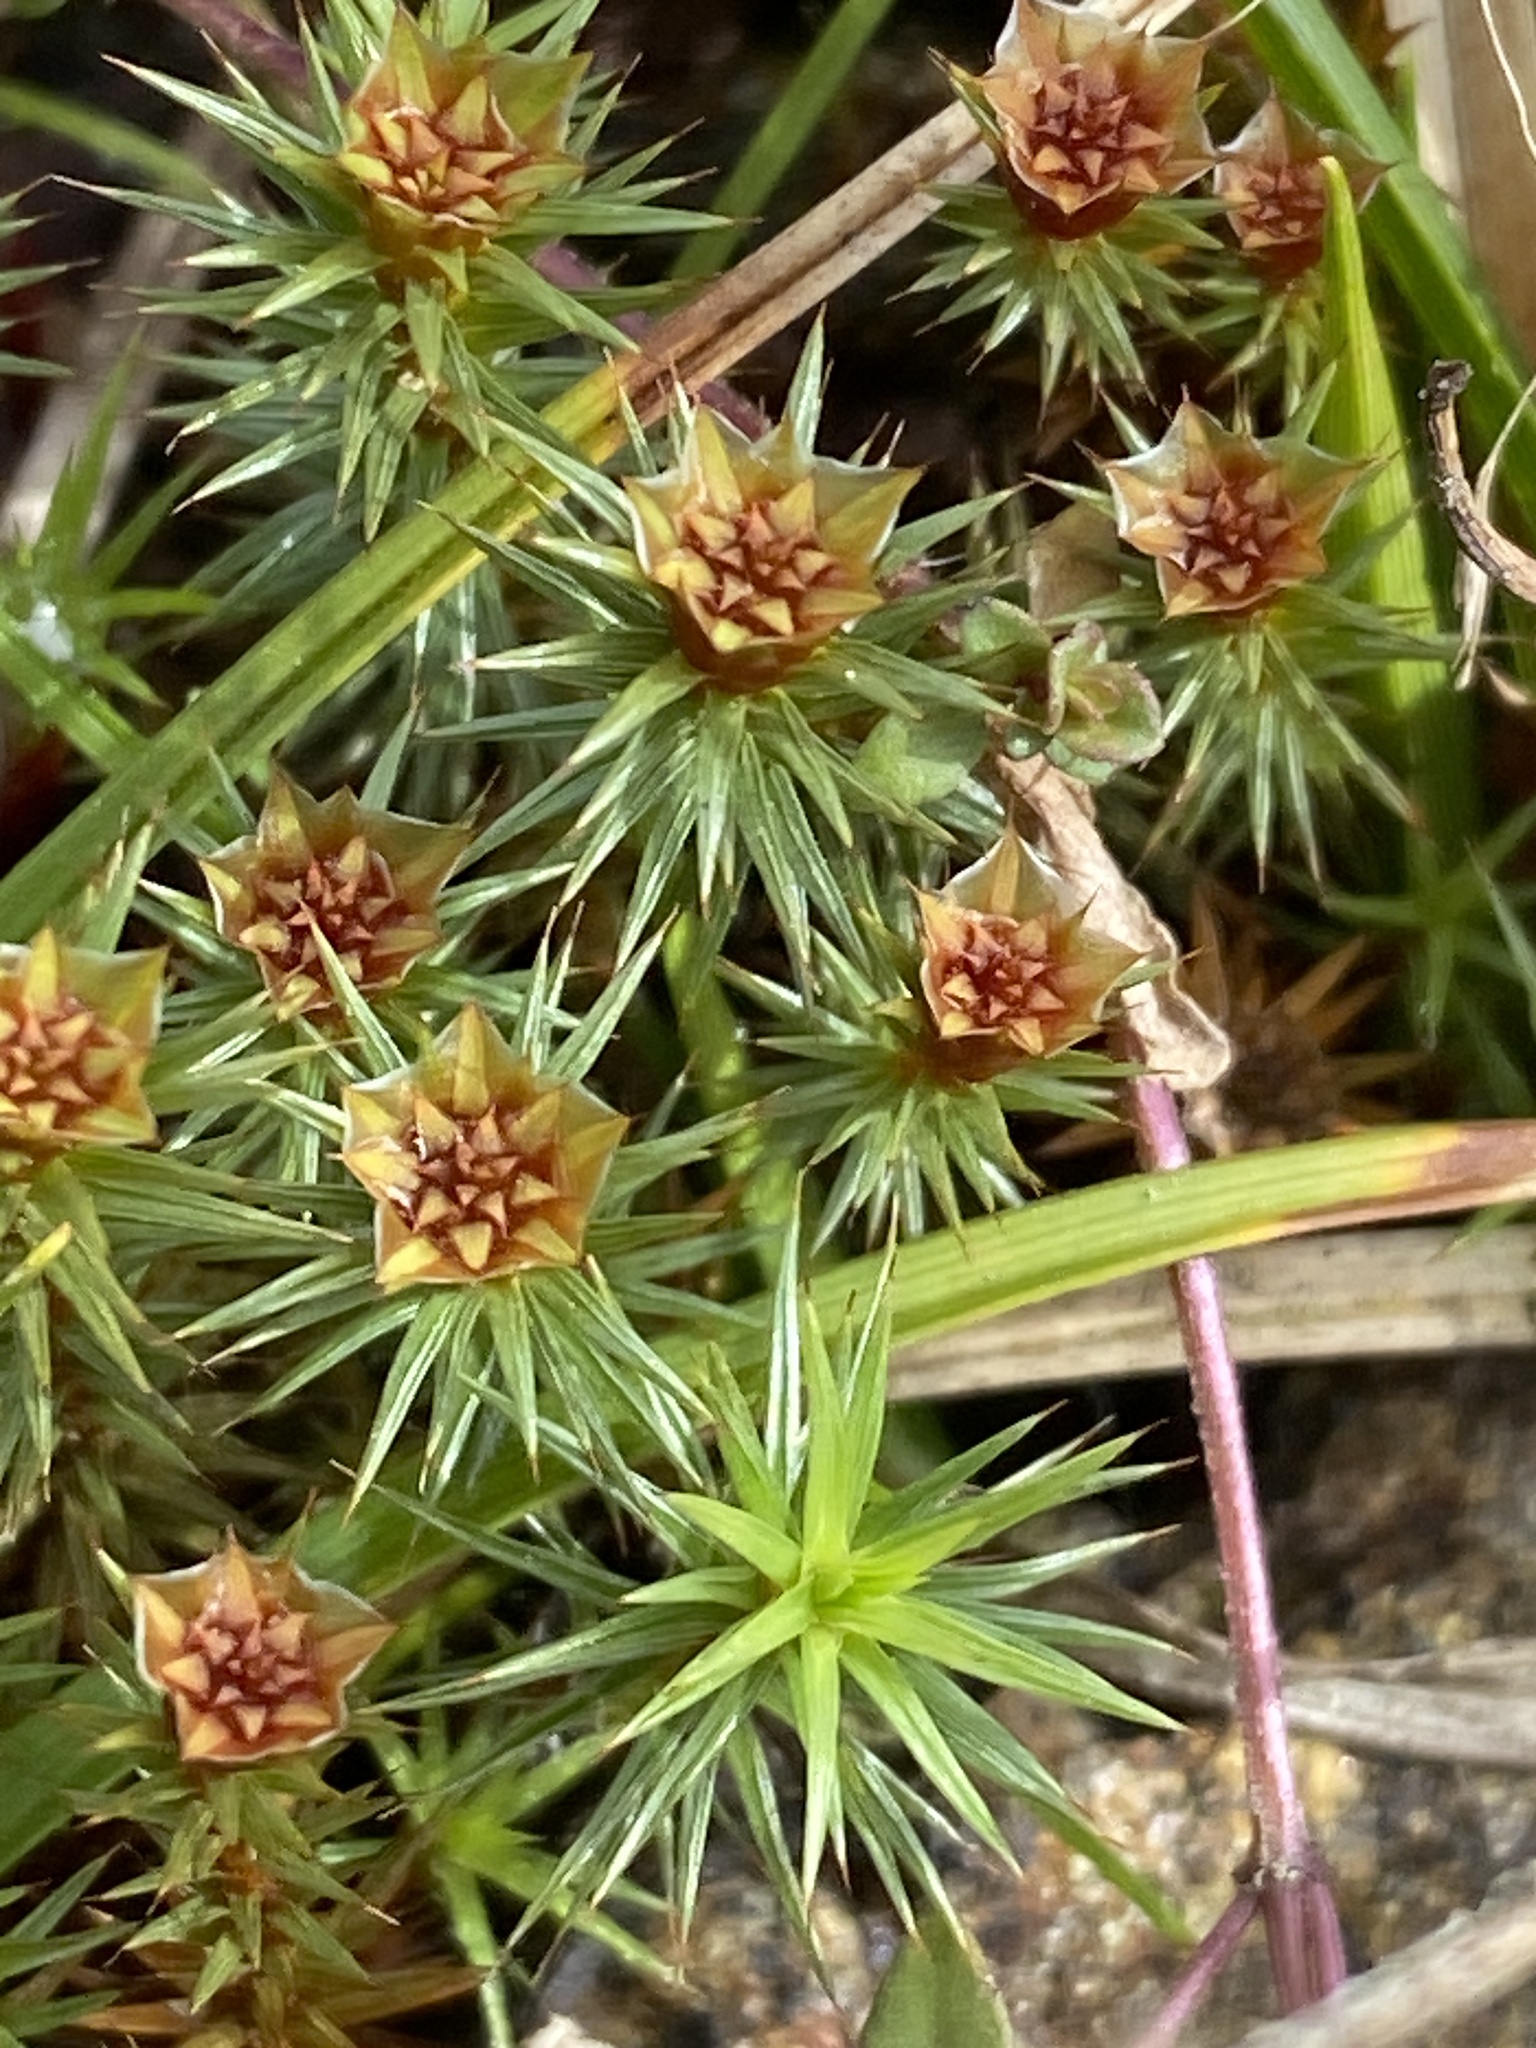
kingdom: Plantae
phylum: Bryophyta
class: Polytrichopsida
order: Polytrichales
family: Polytrichaceae
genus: Polytrichum
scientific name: Polytrichum juniperinum
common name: Juniper haircap moss
